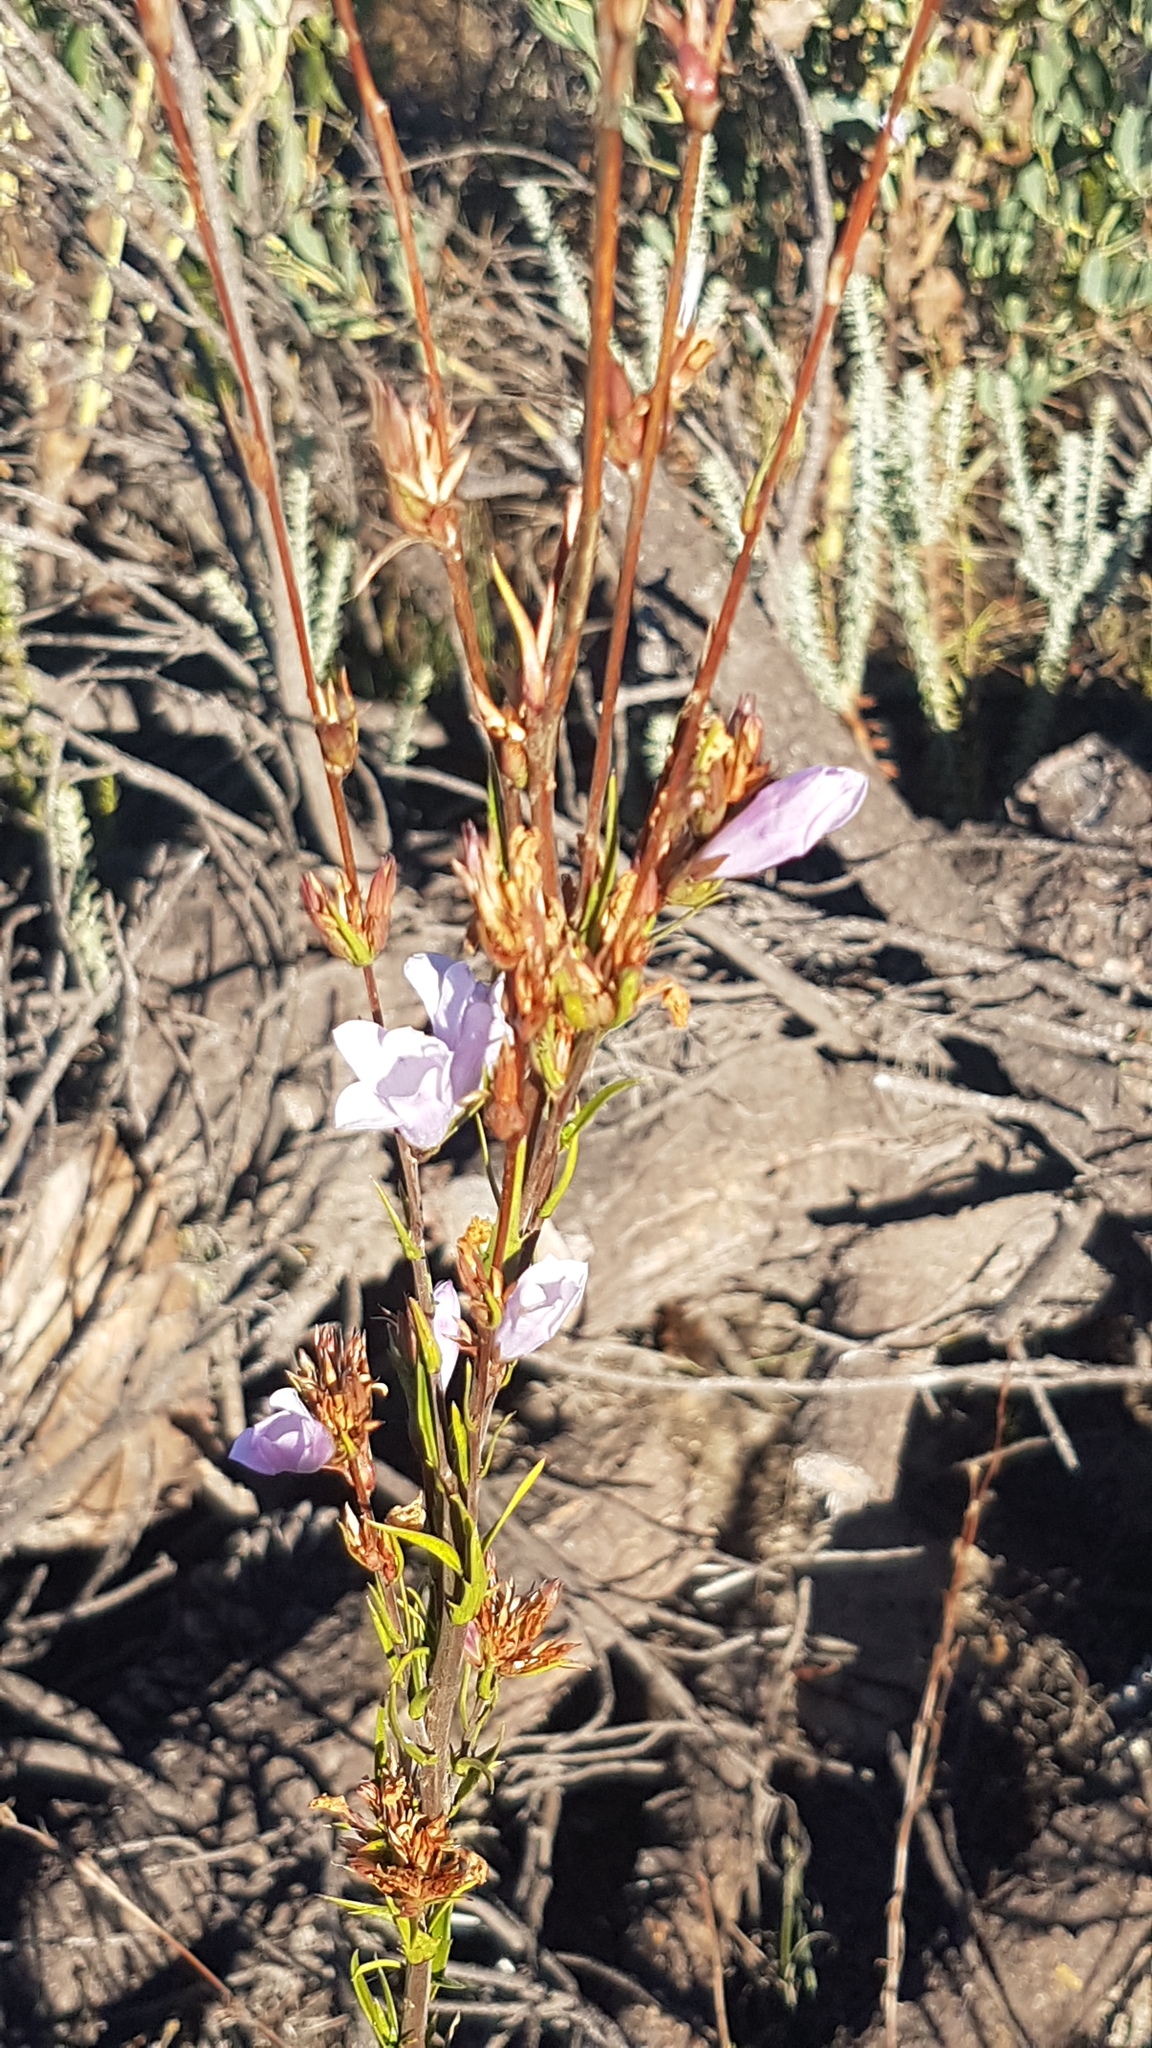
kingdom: Plantae
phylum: Tracheophyta
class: Magnoliopsida
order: Asterales
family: Campanulaceae
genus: Prismatocarpus
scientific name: Prismatocarpus candolleanus
